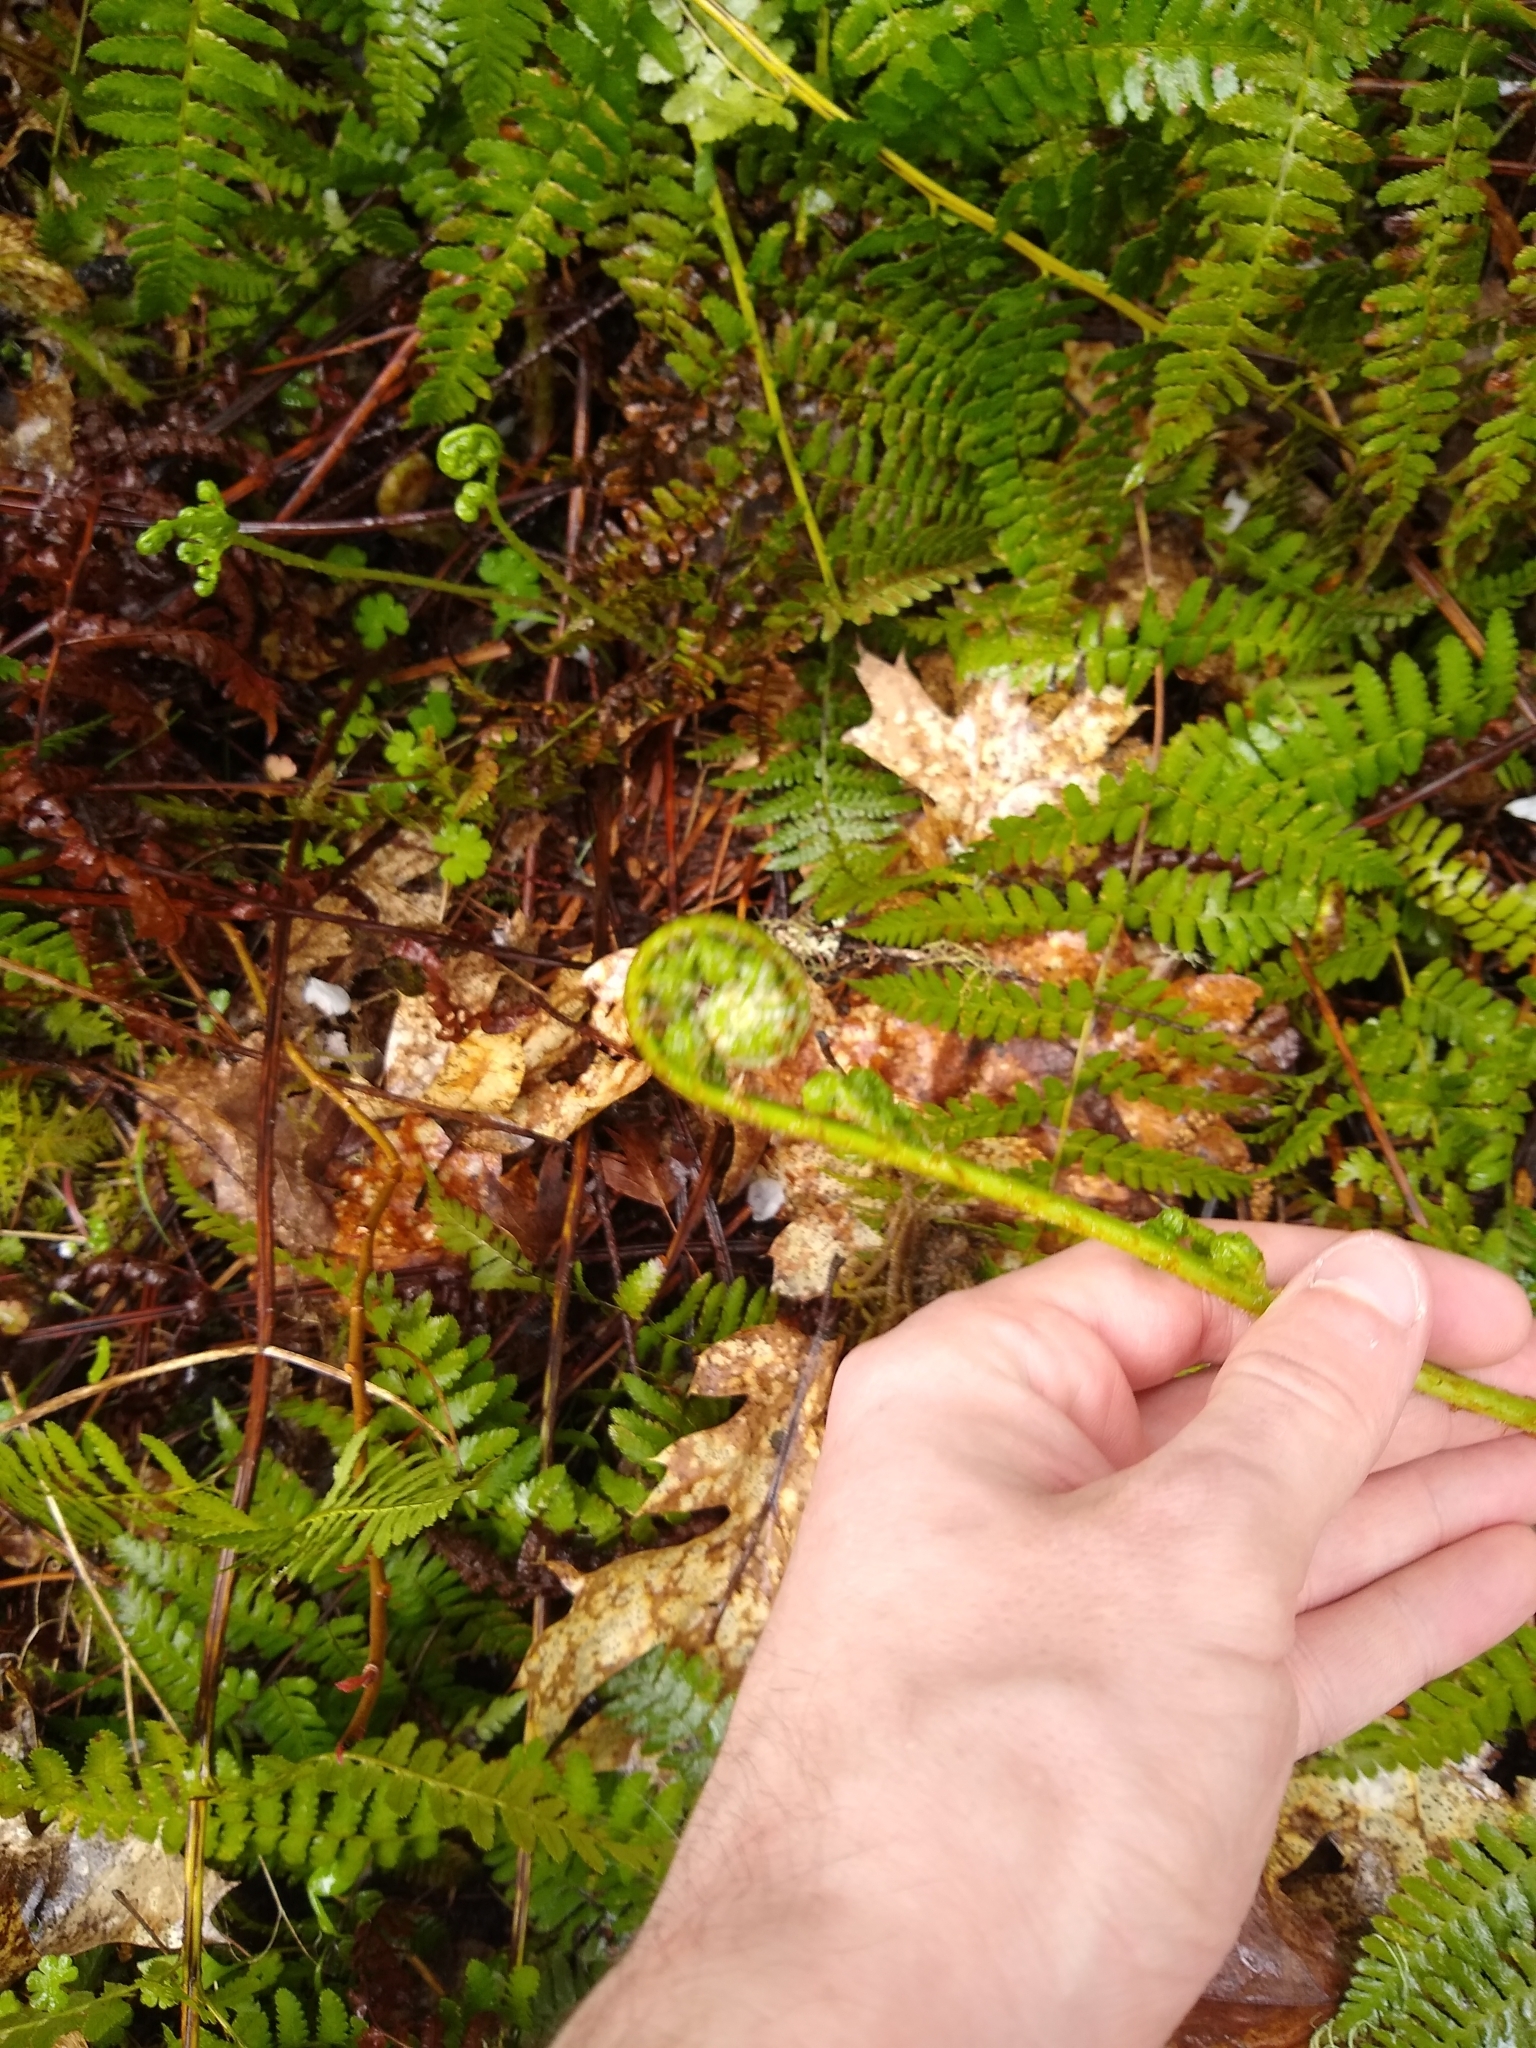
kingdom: Plantae
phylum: Tracheophyta
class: Polypodiopsida
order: Polypodiales
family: Dryopteridaceae
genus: Dryopteris
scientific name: Dryopteris arguta
